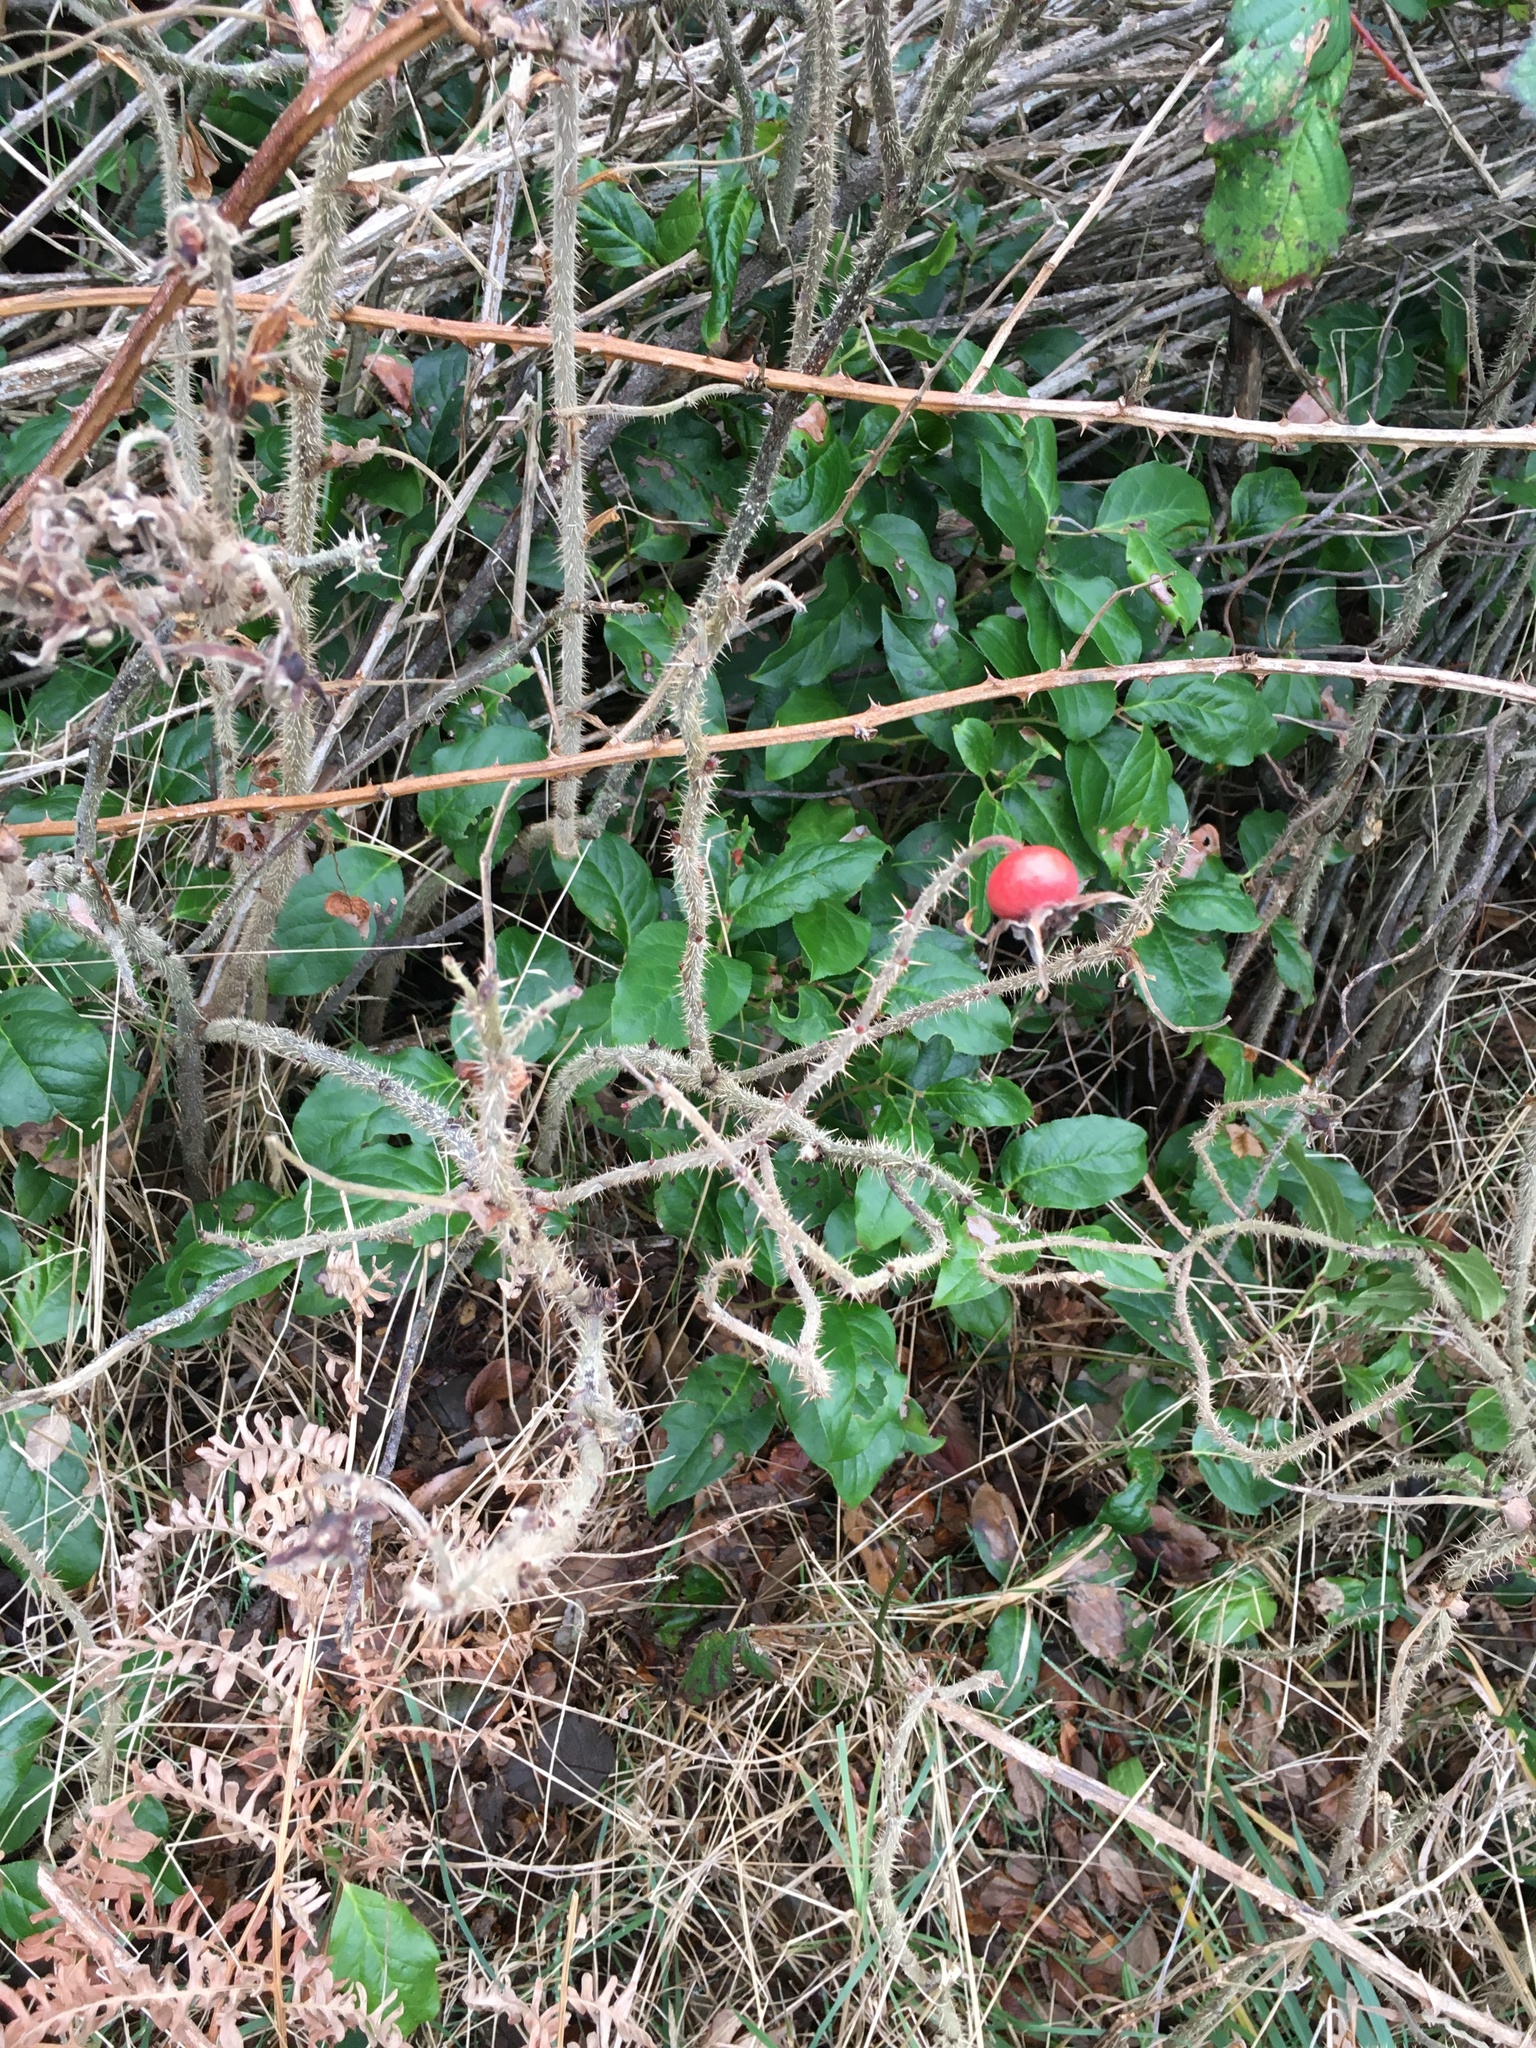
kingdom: Plantae
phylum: Tracheophyta
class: Magnoliopsida
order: Rosales
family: Rosaceae
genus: Rosa
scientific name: Rosa rugosa
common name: Japanese rose
